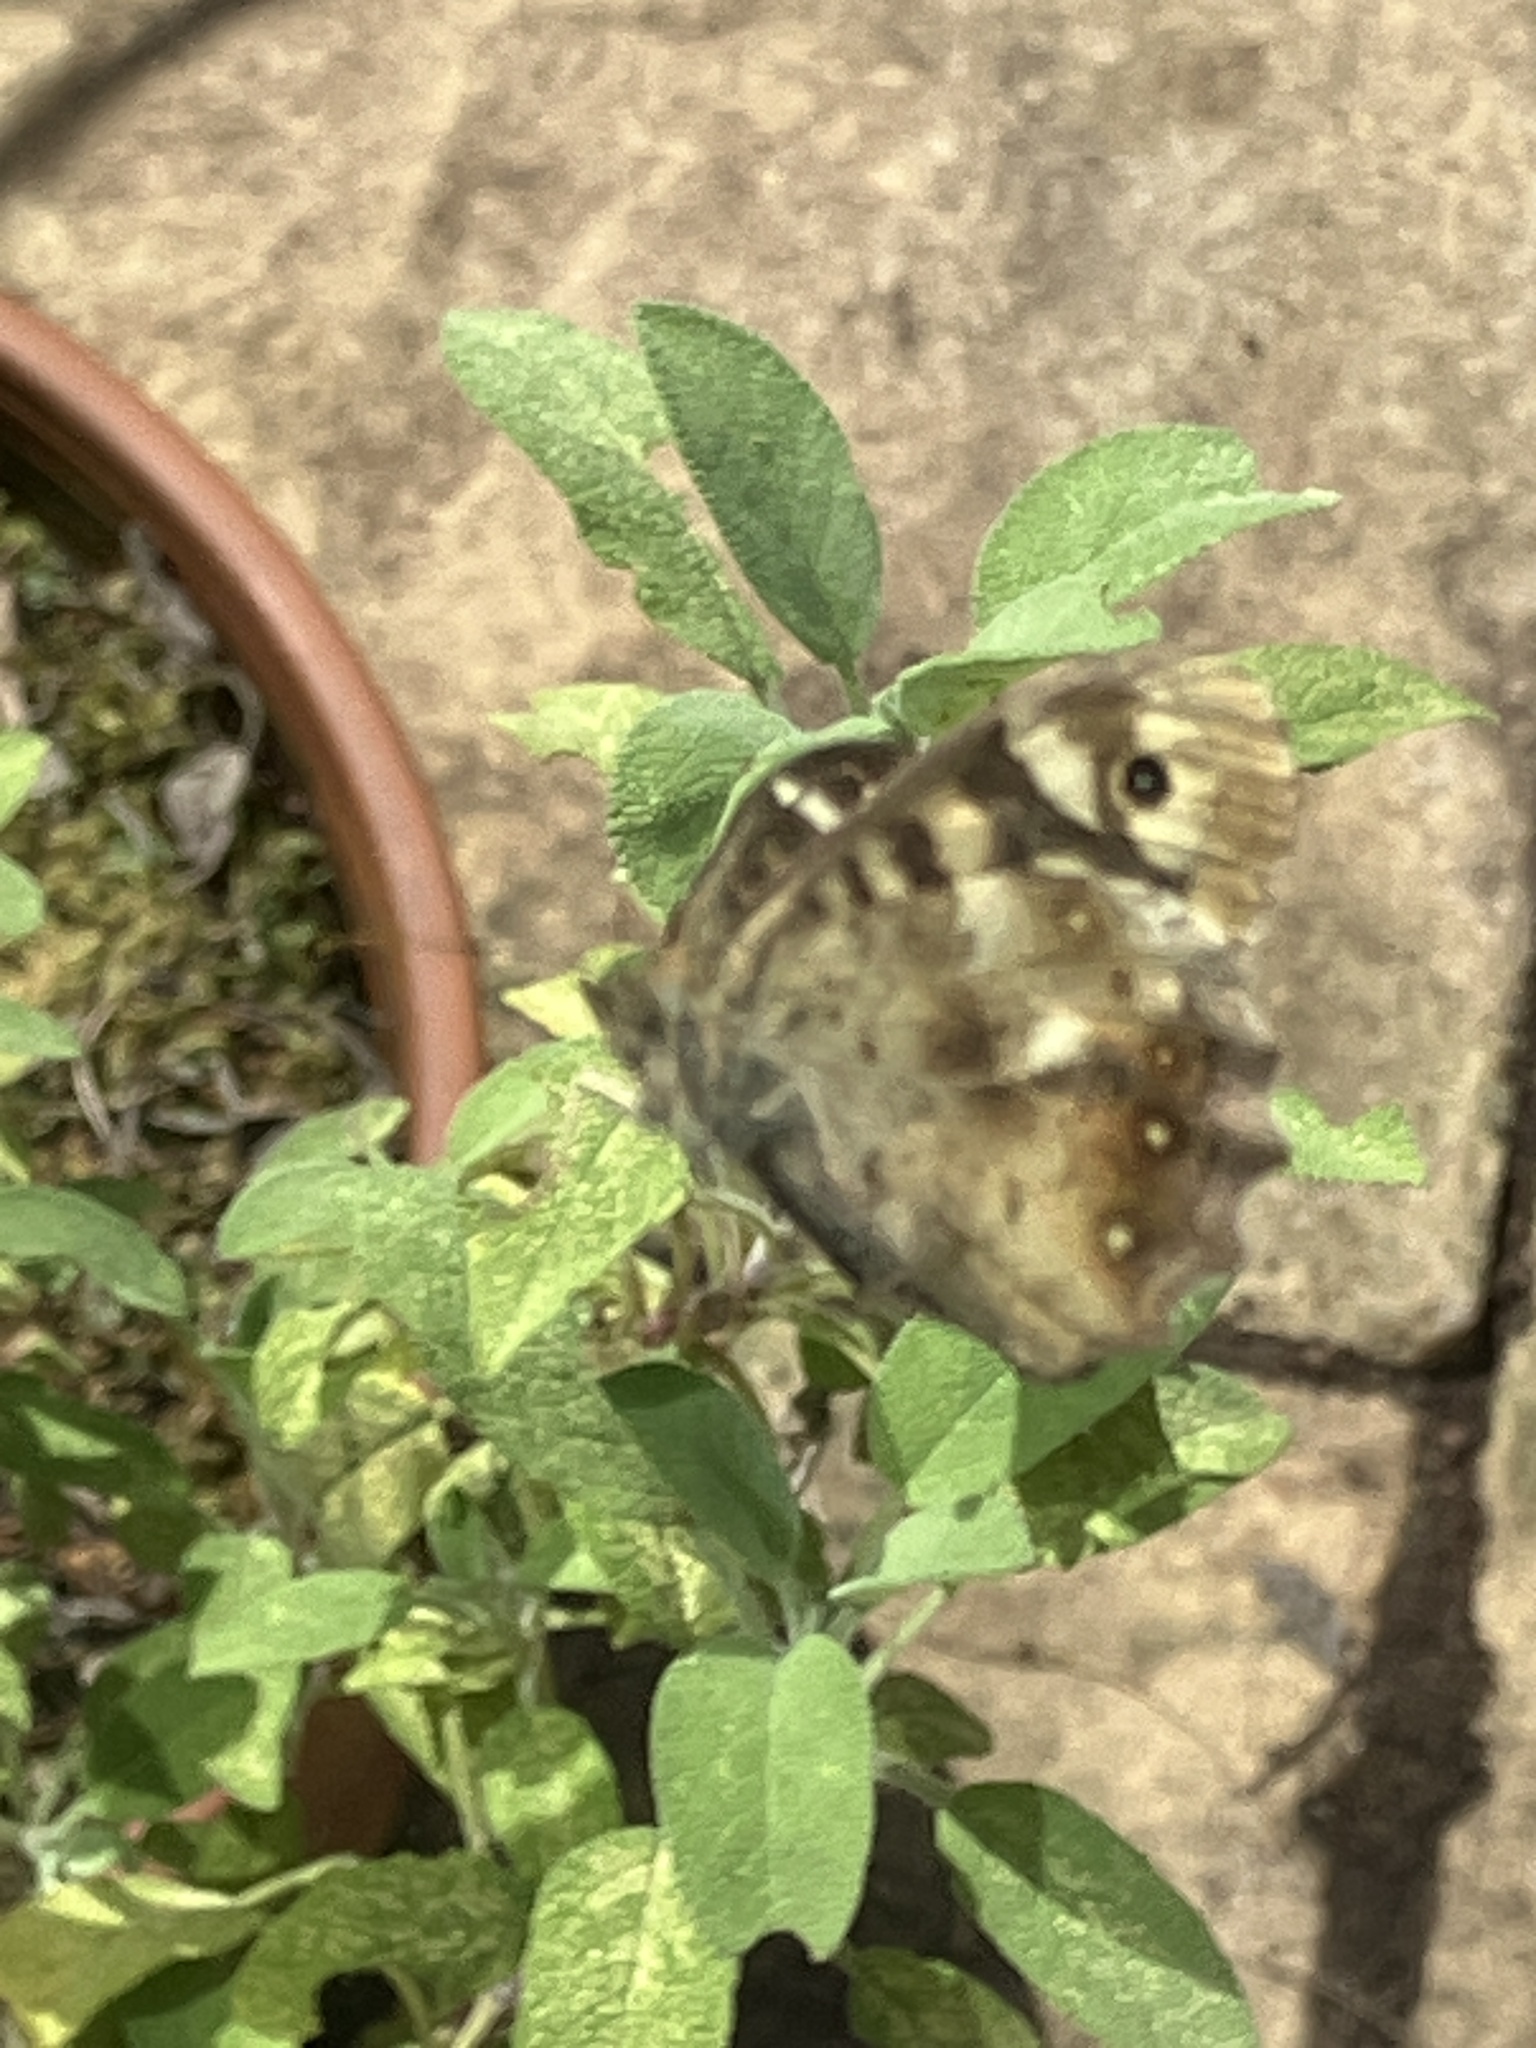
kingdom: Animalia
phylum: Arthropoda
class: Insecta
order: Lepidoptera
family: Nymphalidae
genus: Pararge
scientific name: Pararge aegeria
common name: Speckled wood
